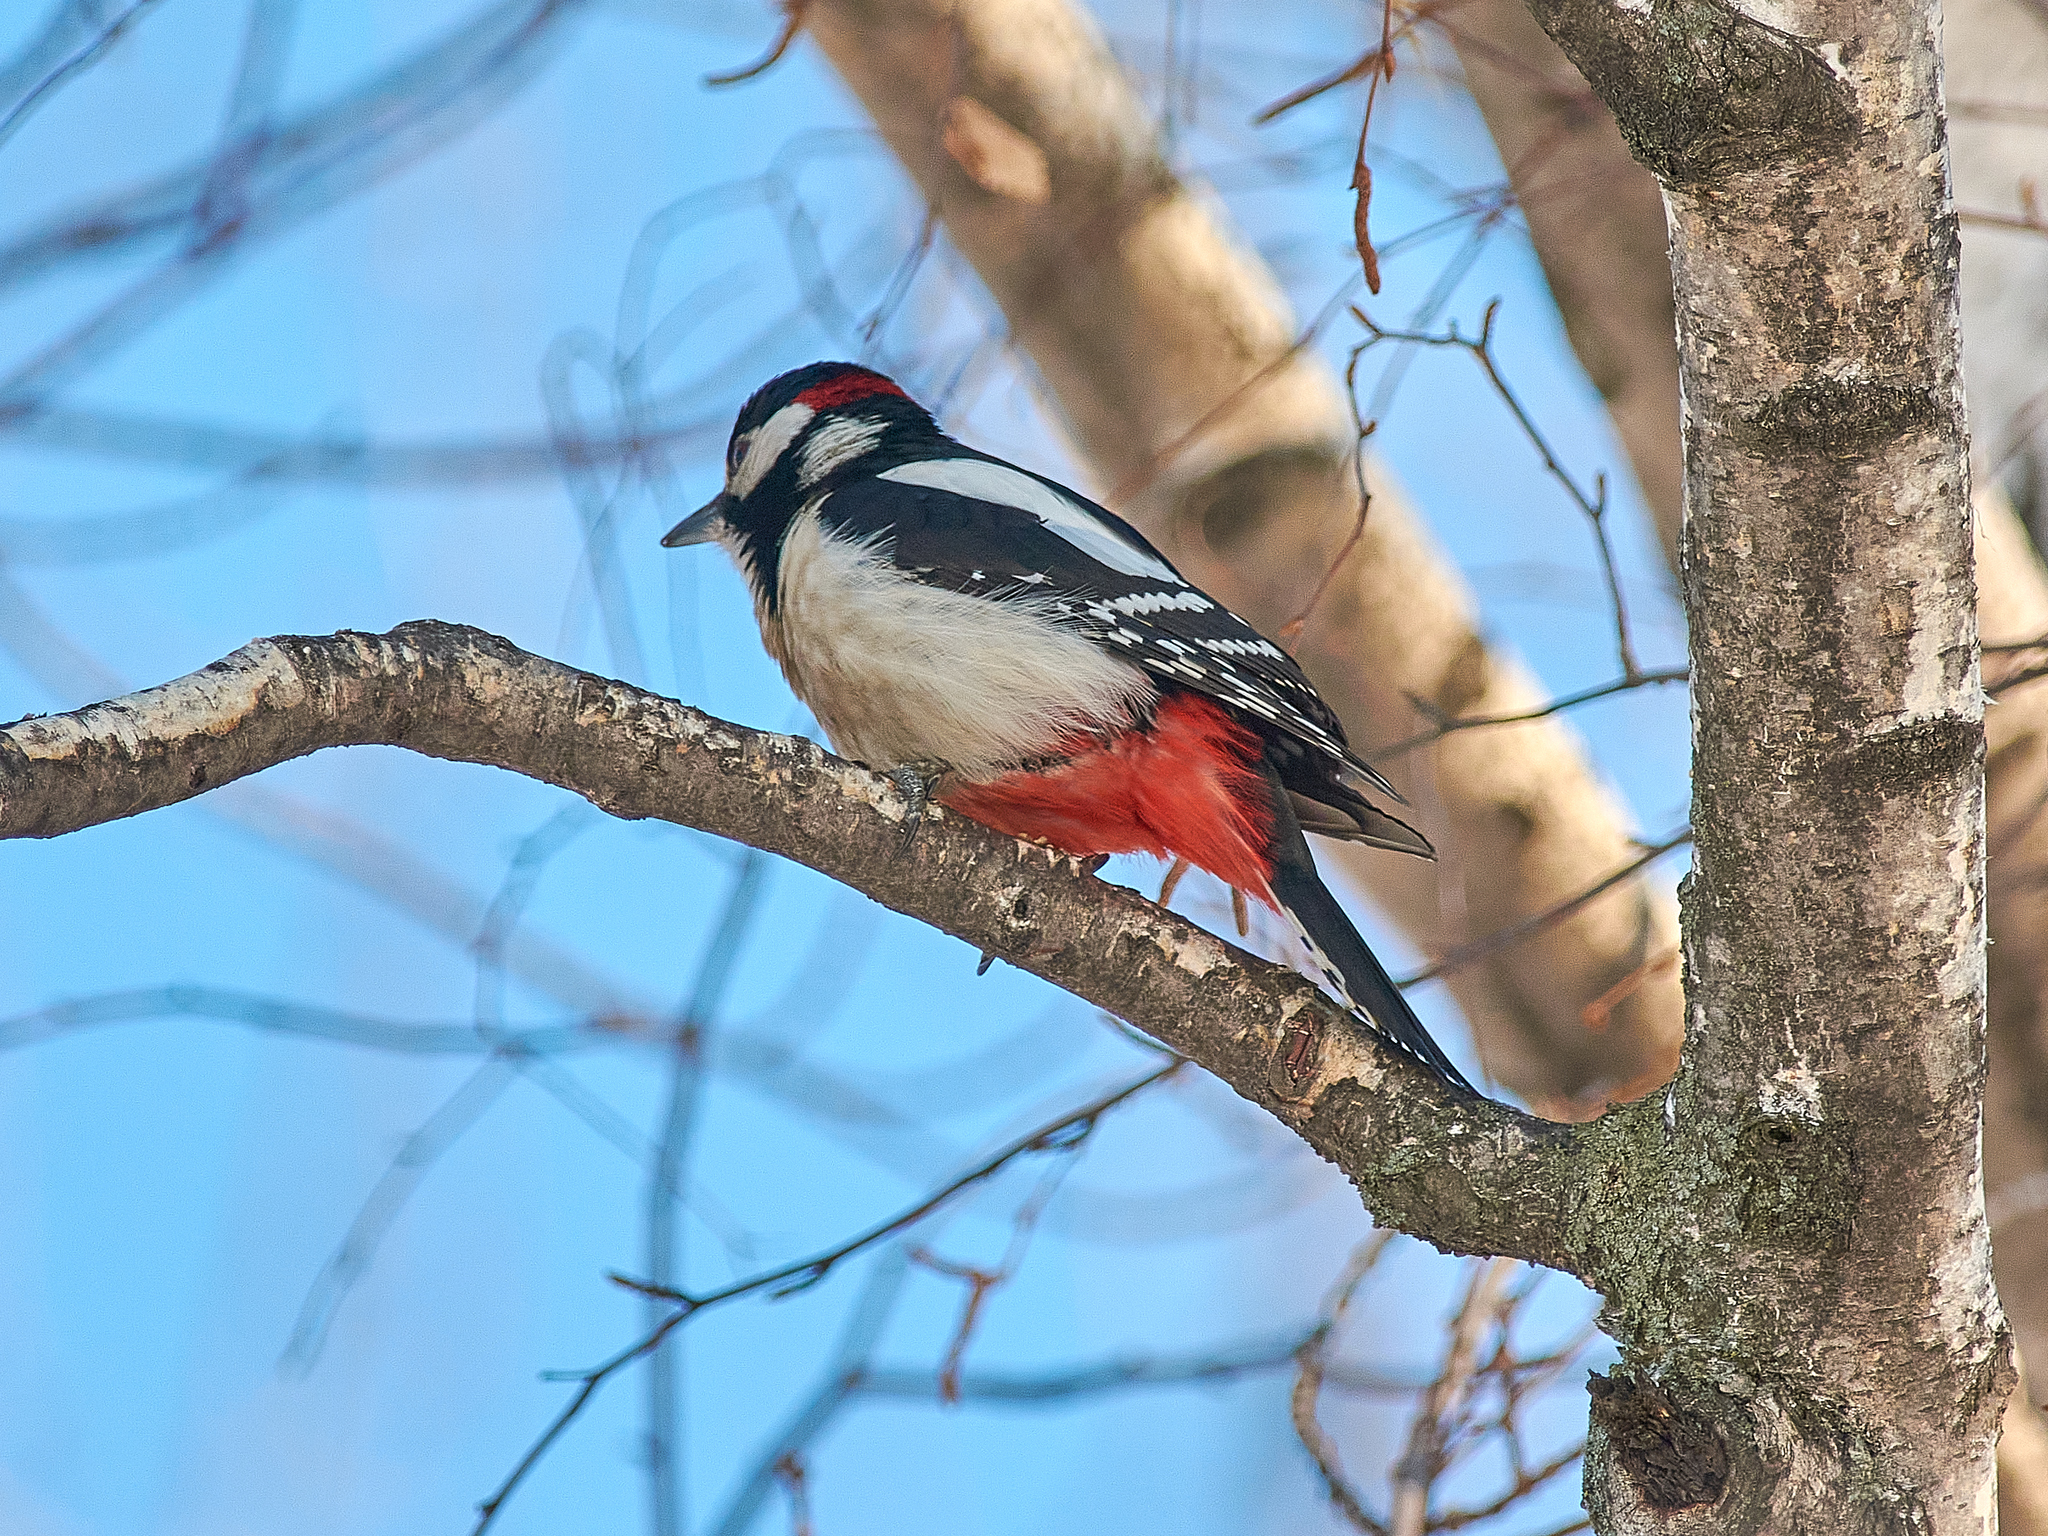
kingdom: Animalia
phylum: Chordata
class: Aves
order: Piciformes
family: Picidae
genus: Dendrocopos
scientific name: Dendrocopos major
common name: Great spotted woodpecker
